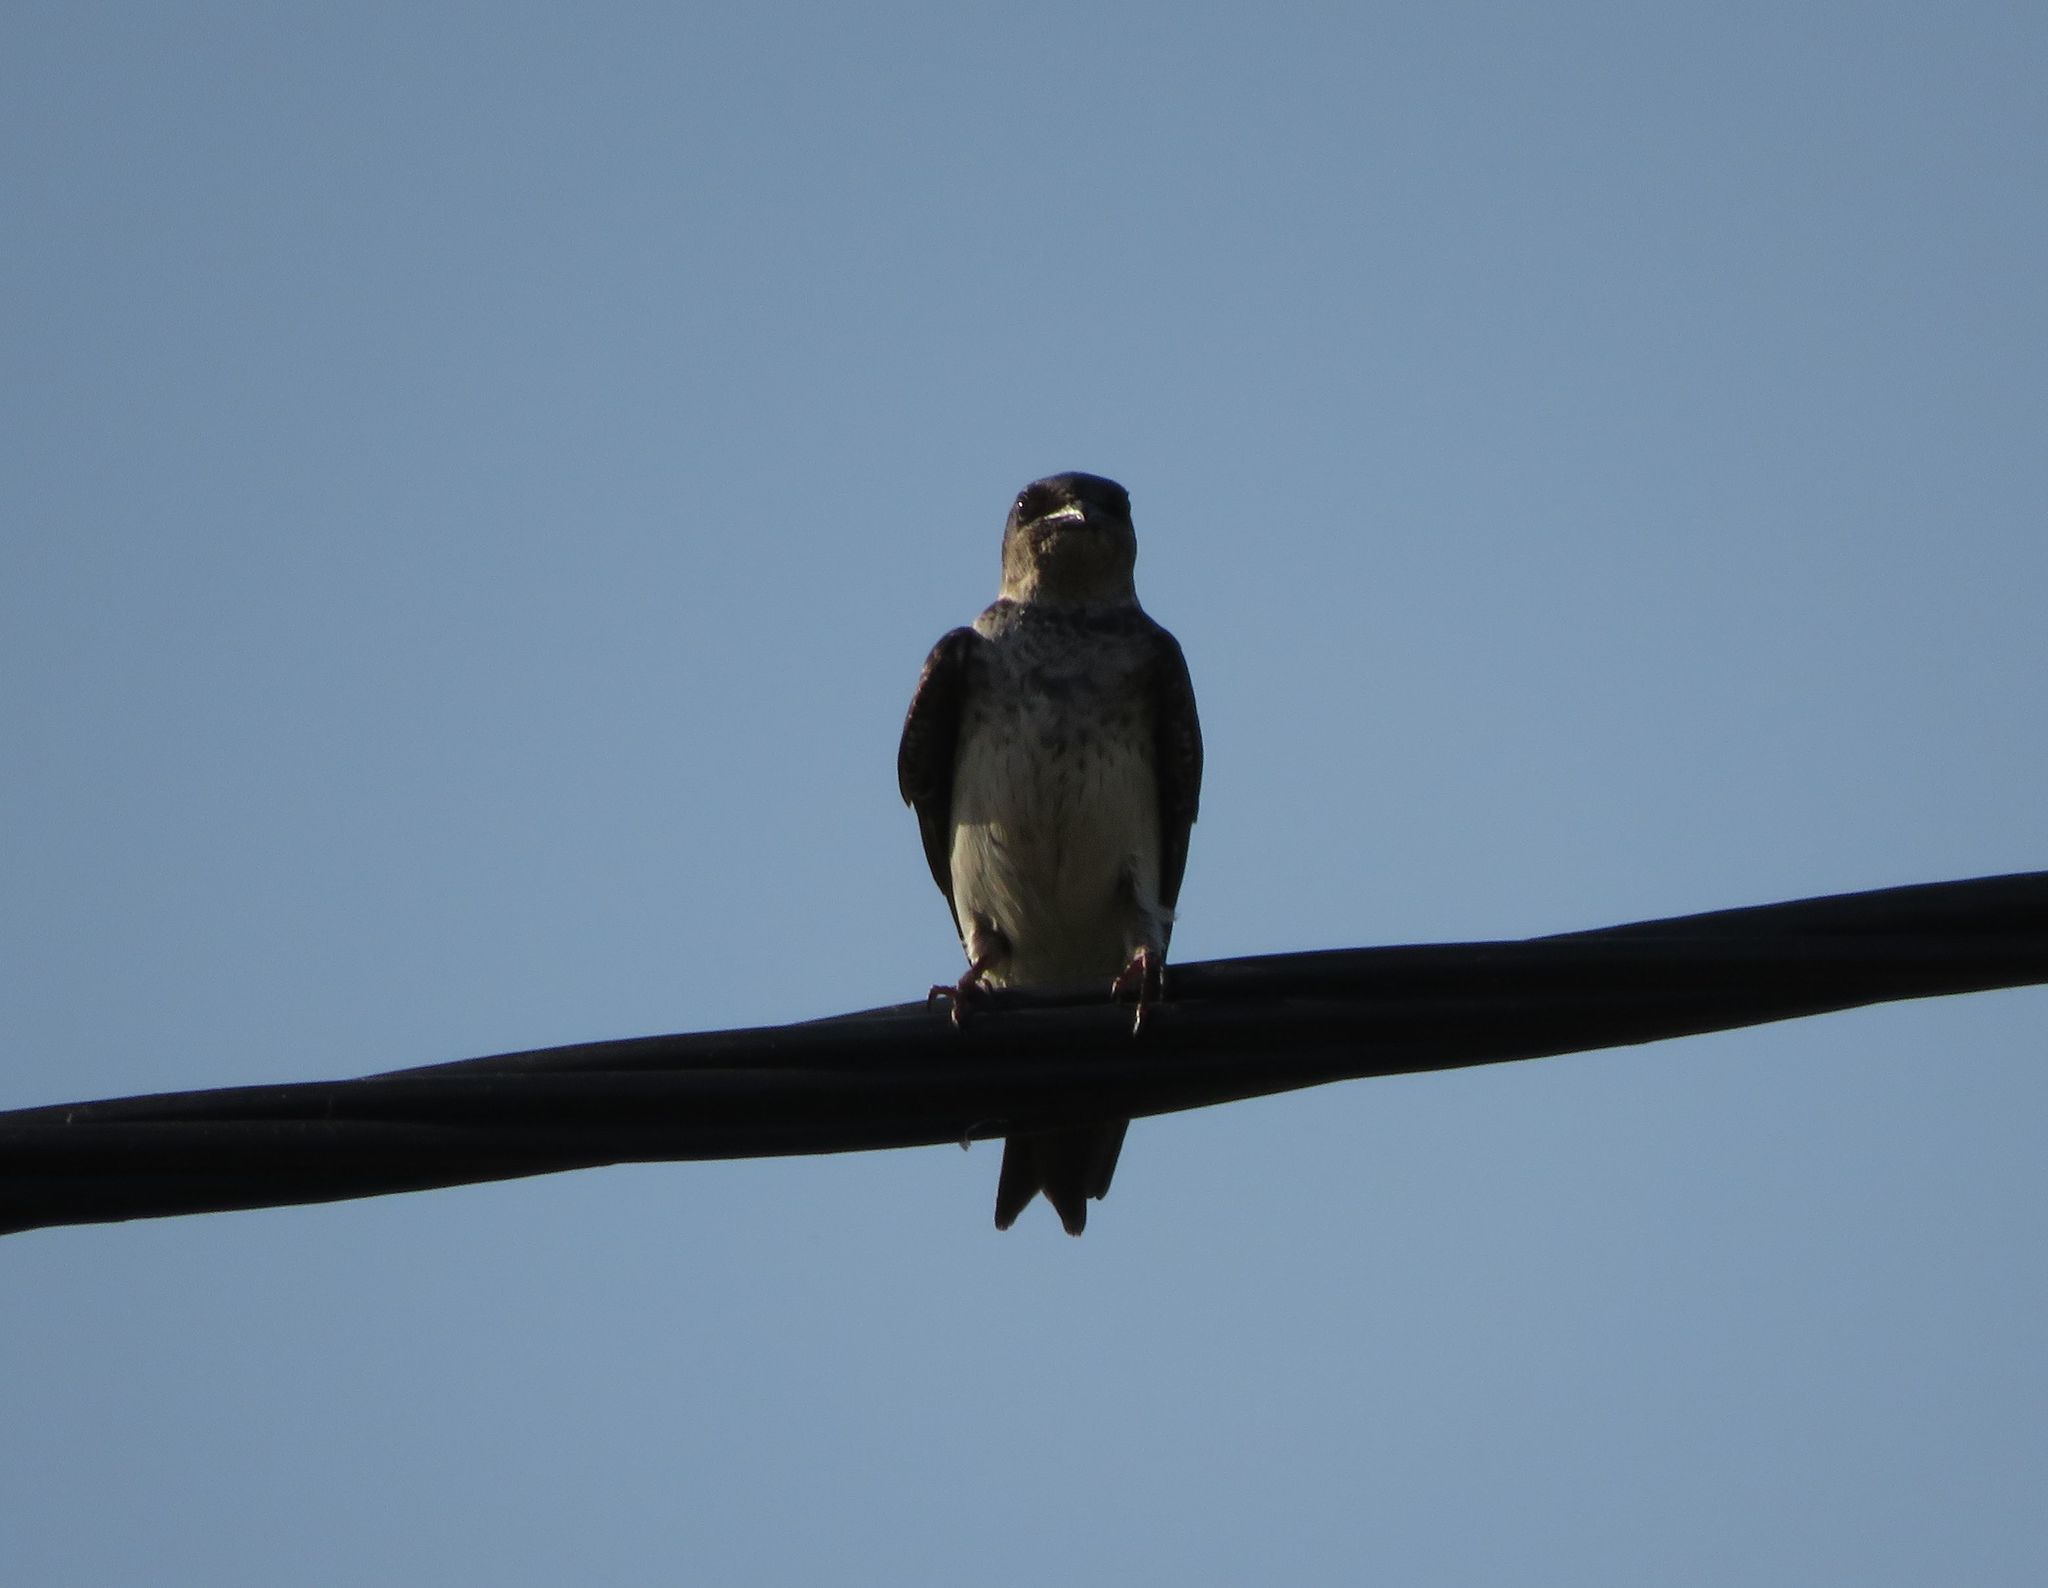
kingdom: Animalia
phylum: Chordata
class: Aves
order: Passeriformes
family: Hirundinidae
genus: Progne
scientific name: Progne chalybea
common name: Grey-breasted martin
